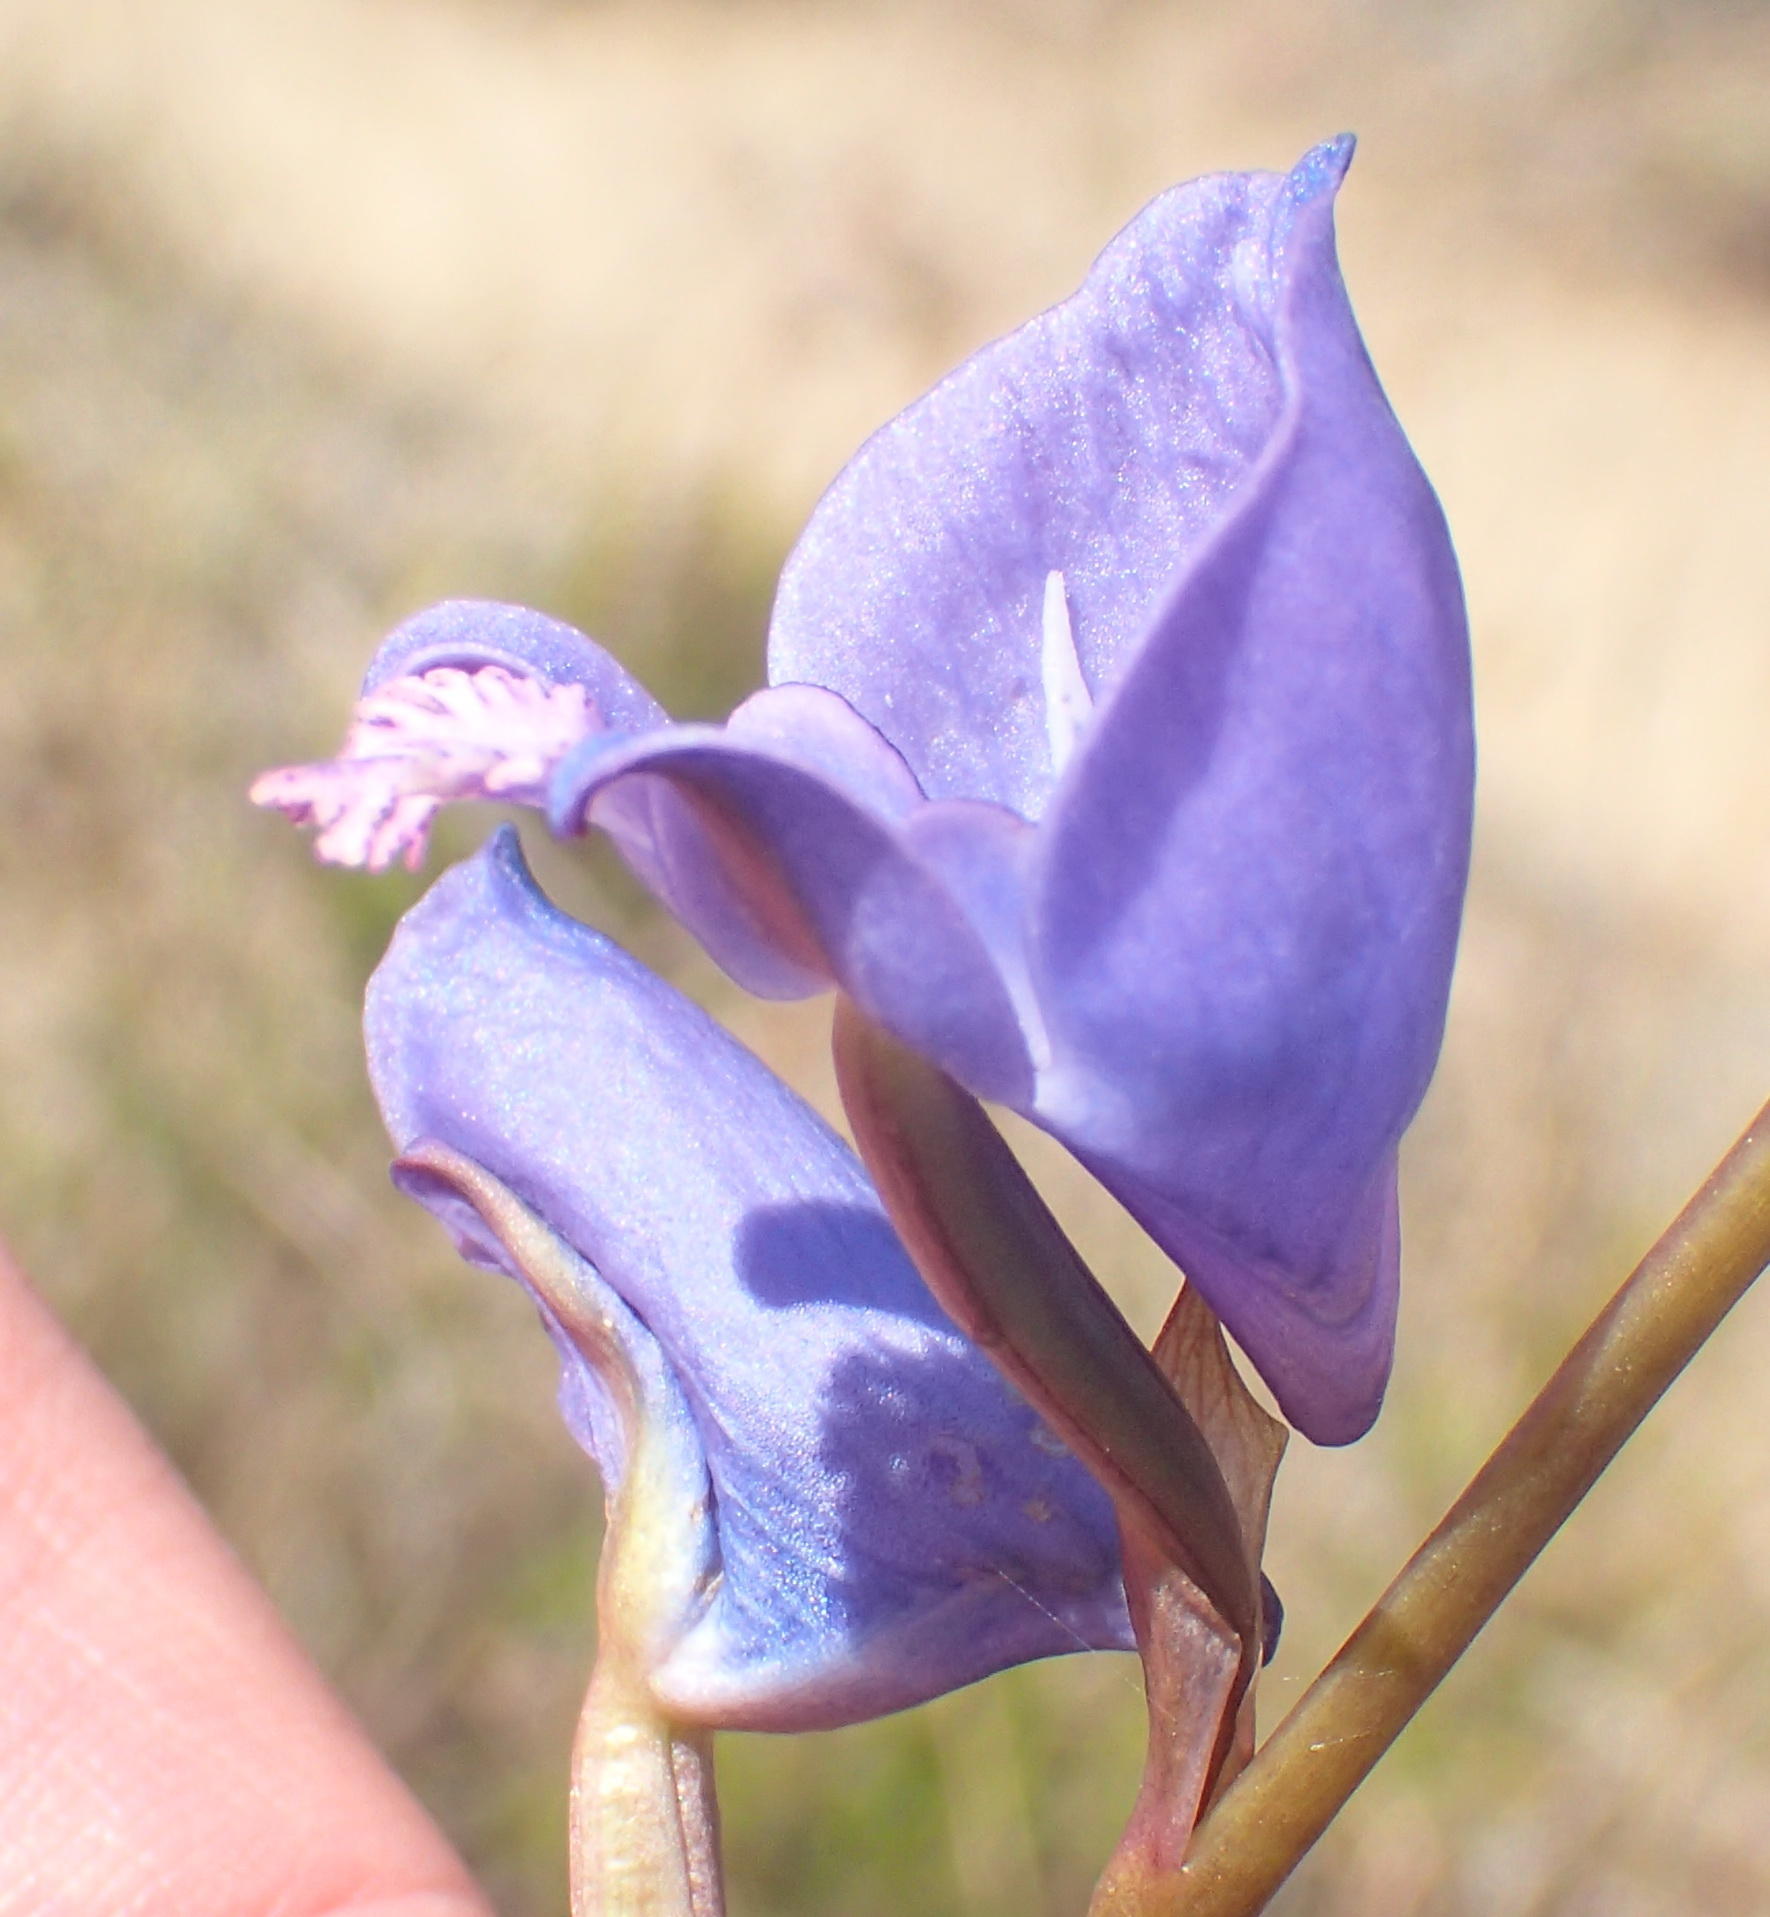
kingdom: Plantae
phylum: Tracheophyta
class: Liliopsida
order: Asparagales
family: Orchidaceae
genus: Disa
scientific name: Disa hians
